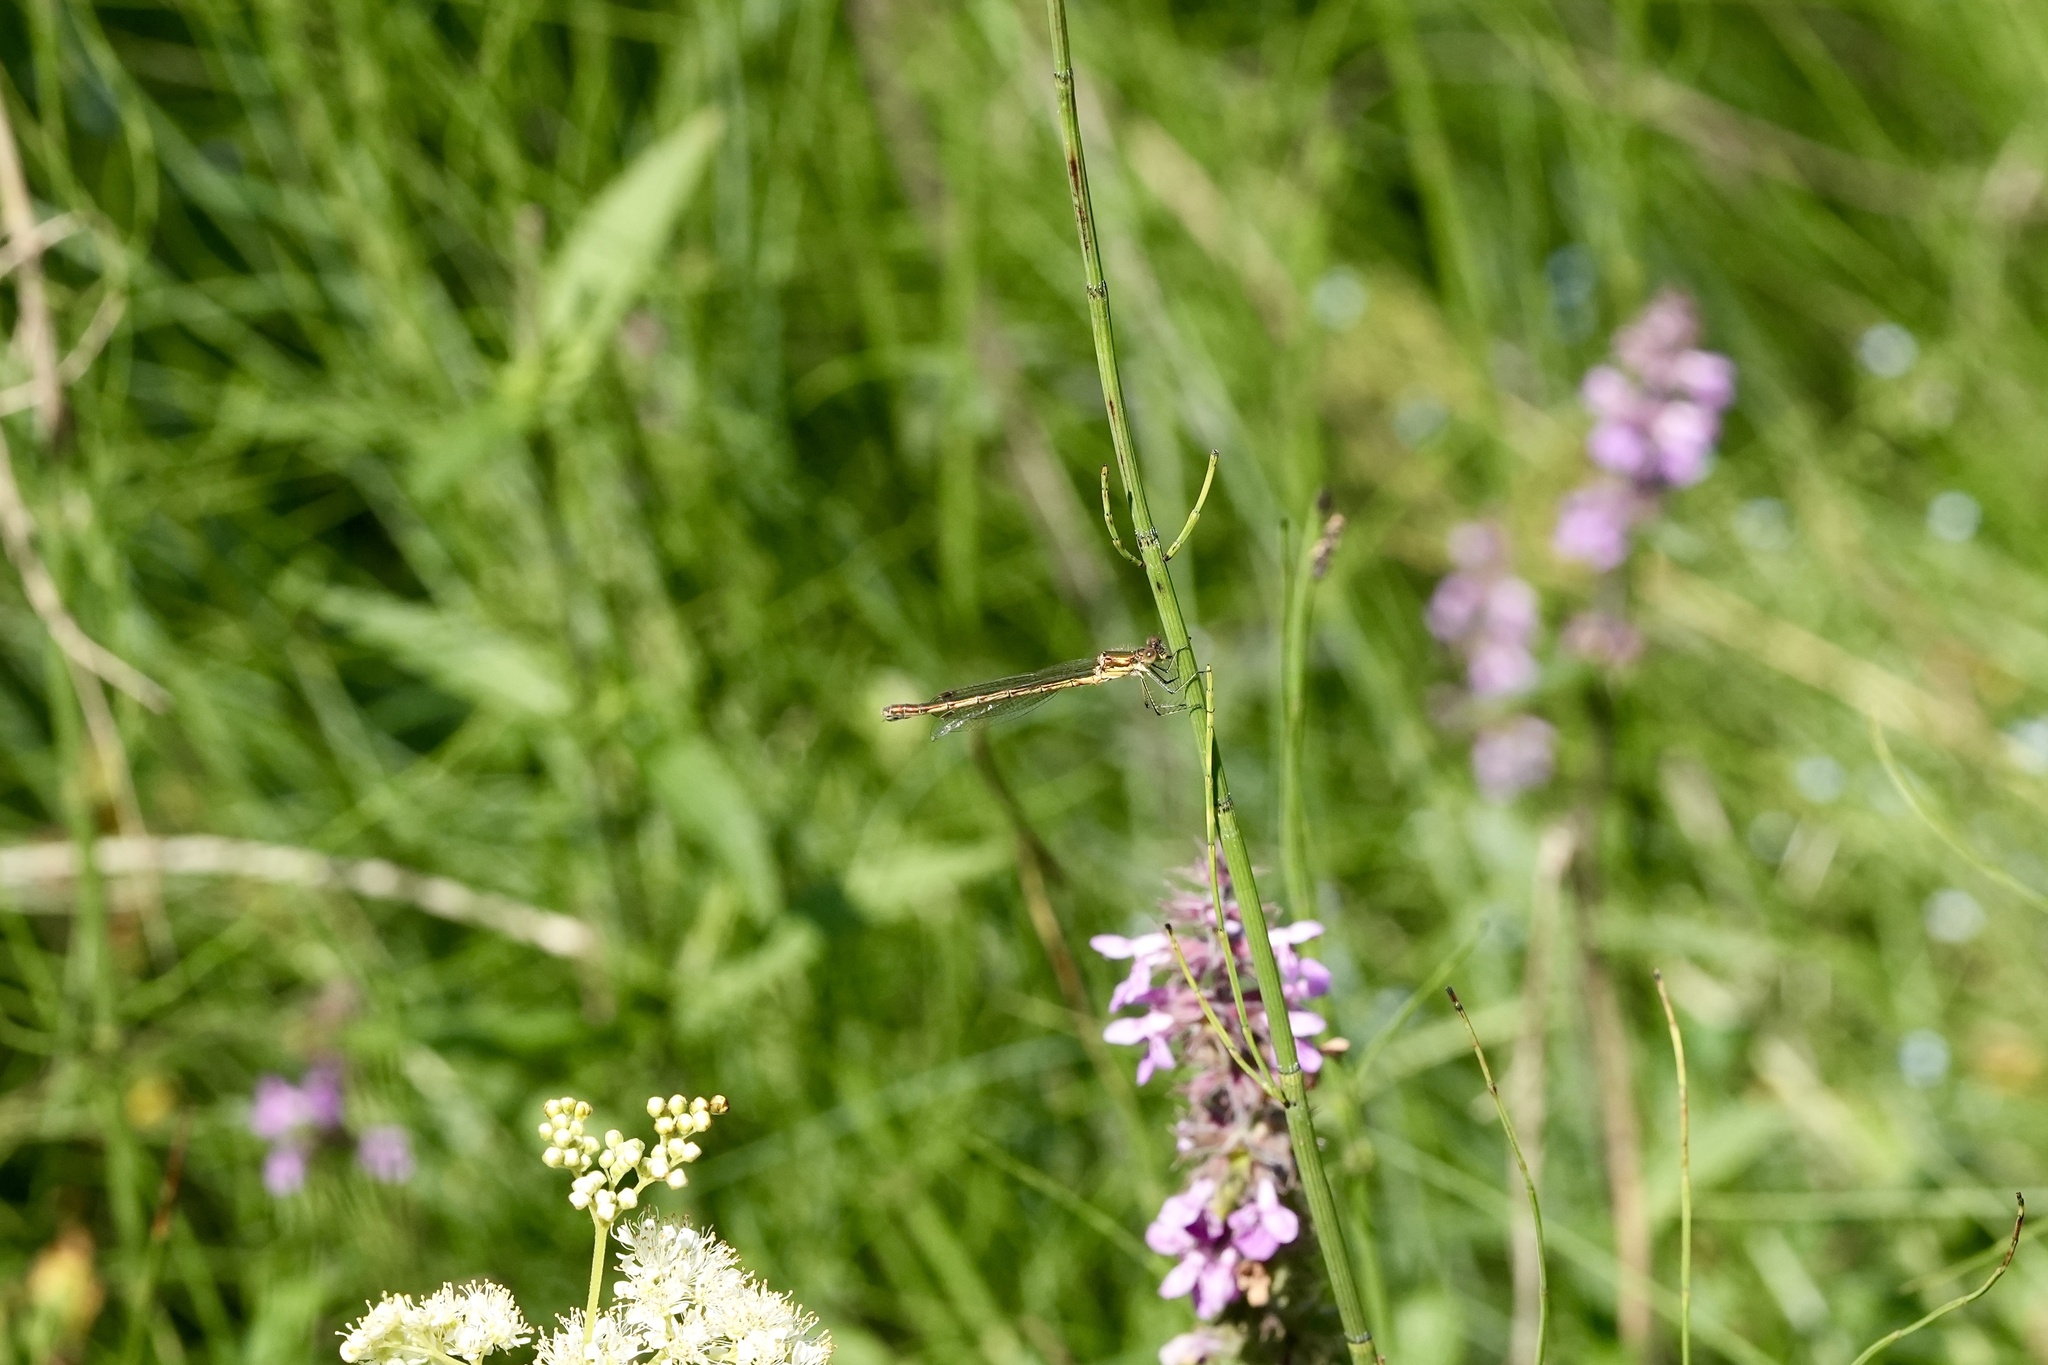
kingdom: Animalia
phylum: Arthropoda
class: Insecta
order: Odonata
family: Lestidae
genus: Lestes
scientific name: Lestes sponsa
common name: Common spreadwing
